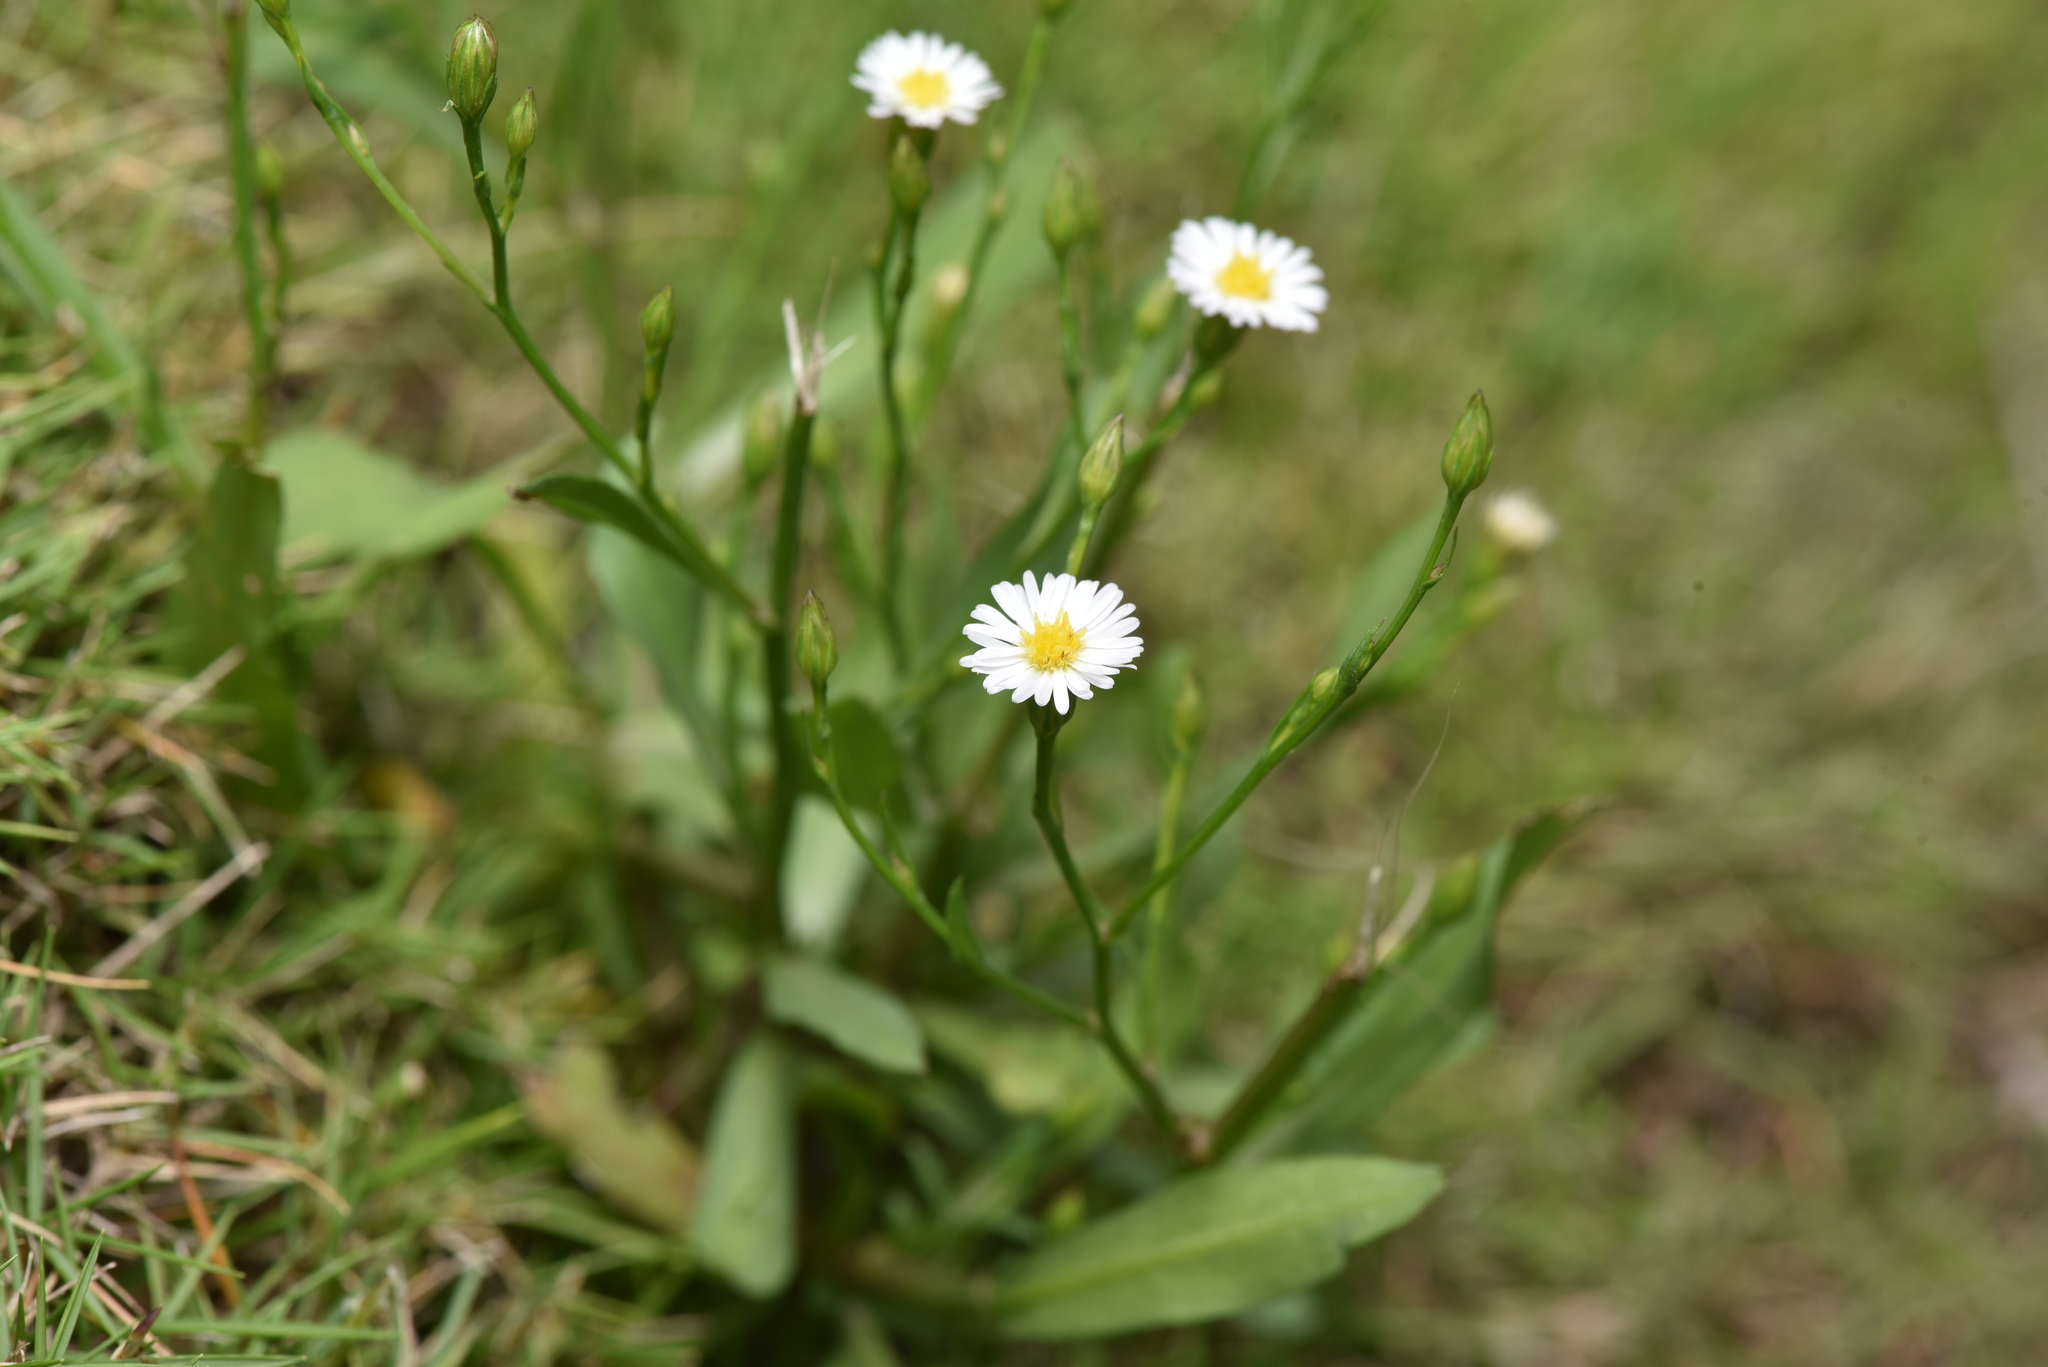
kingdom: Plantae
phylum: Tracheophyta
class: Magnoliopsida
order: Asterales
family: Asteraceae
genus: Symphyotrichum
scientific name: Symphyotrichum subulatum
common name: Annual saltmarsh aster
